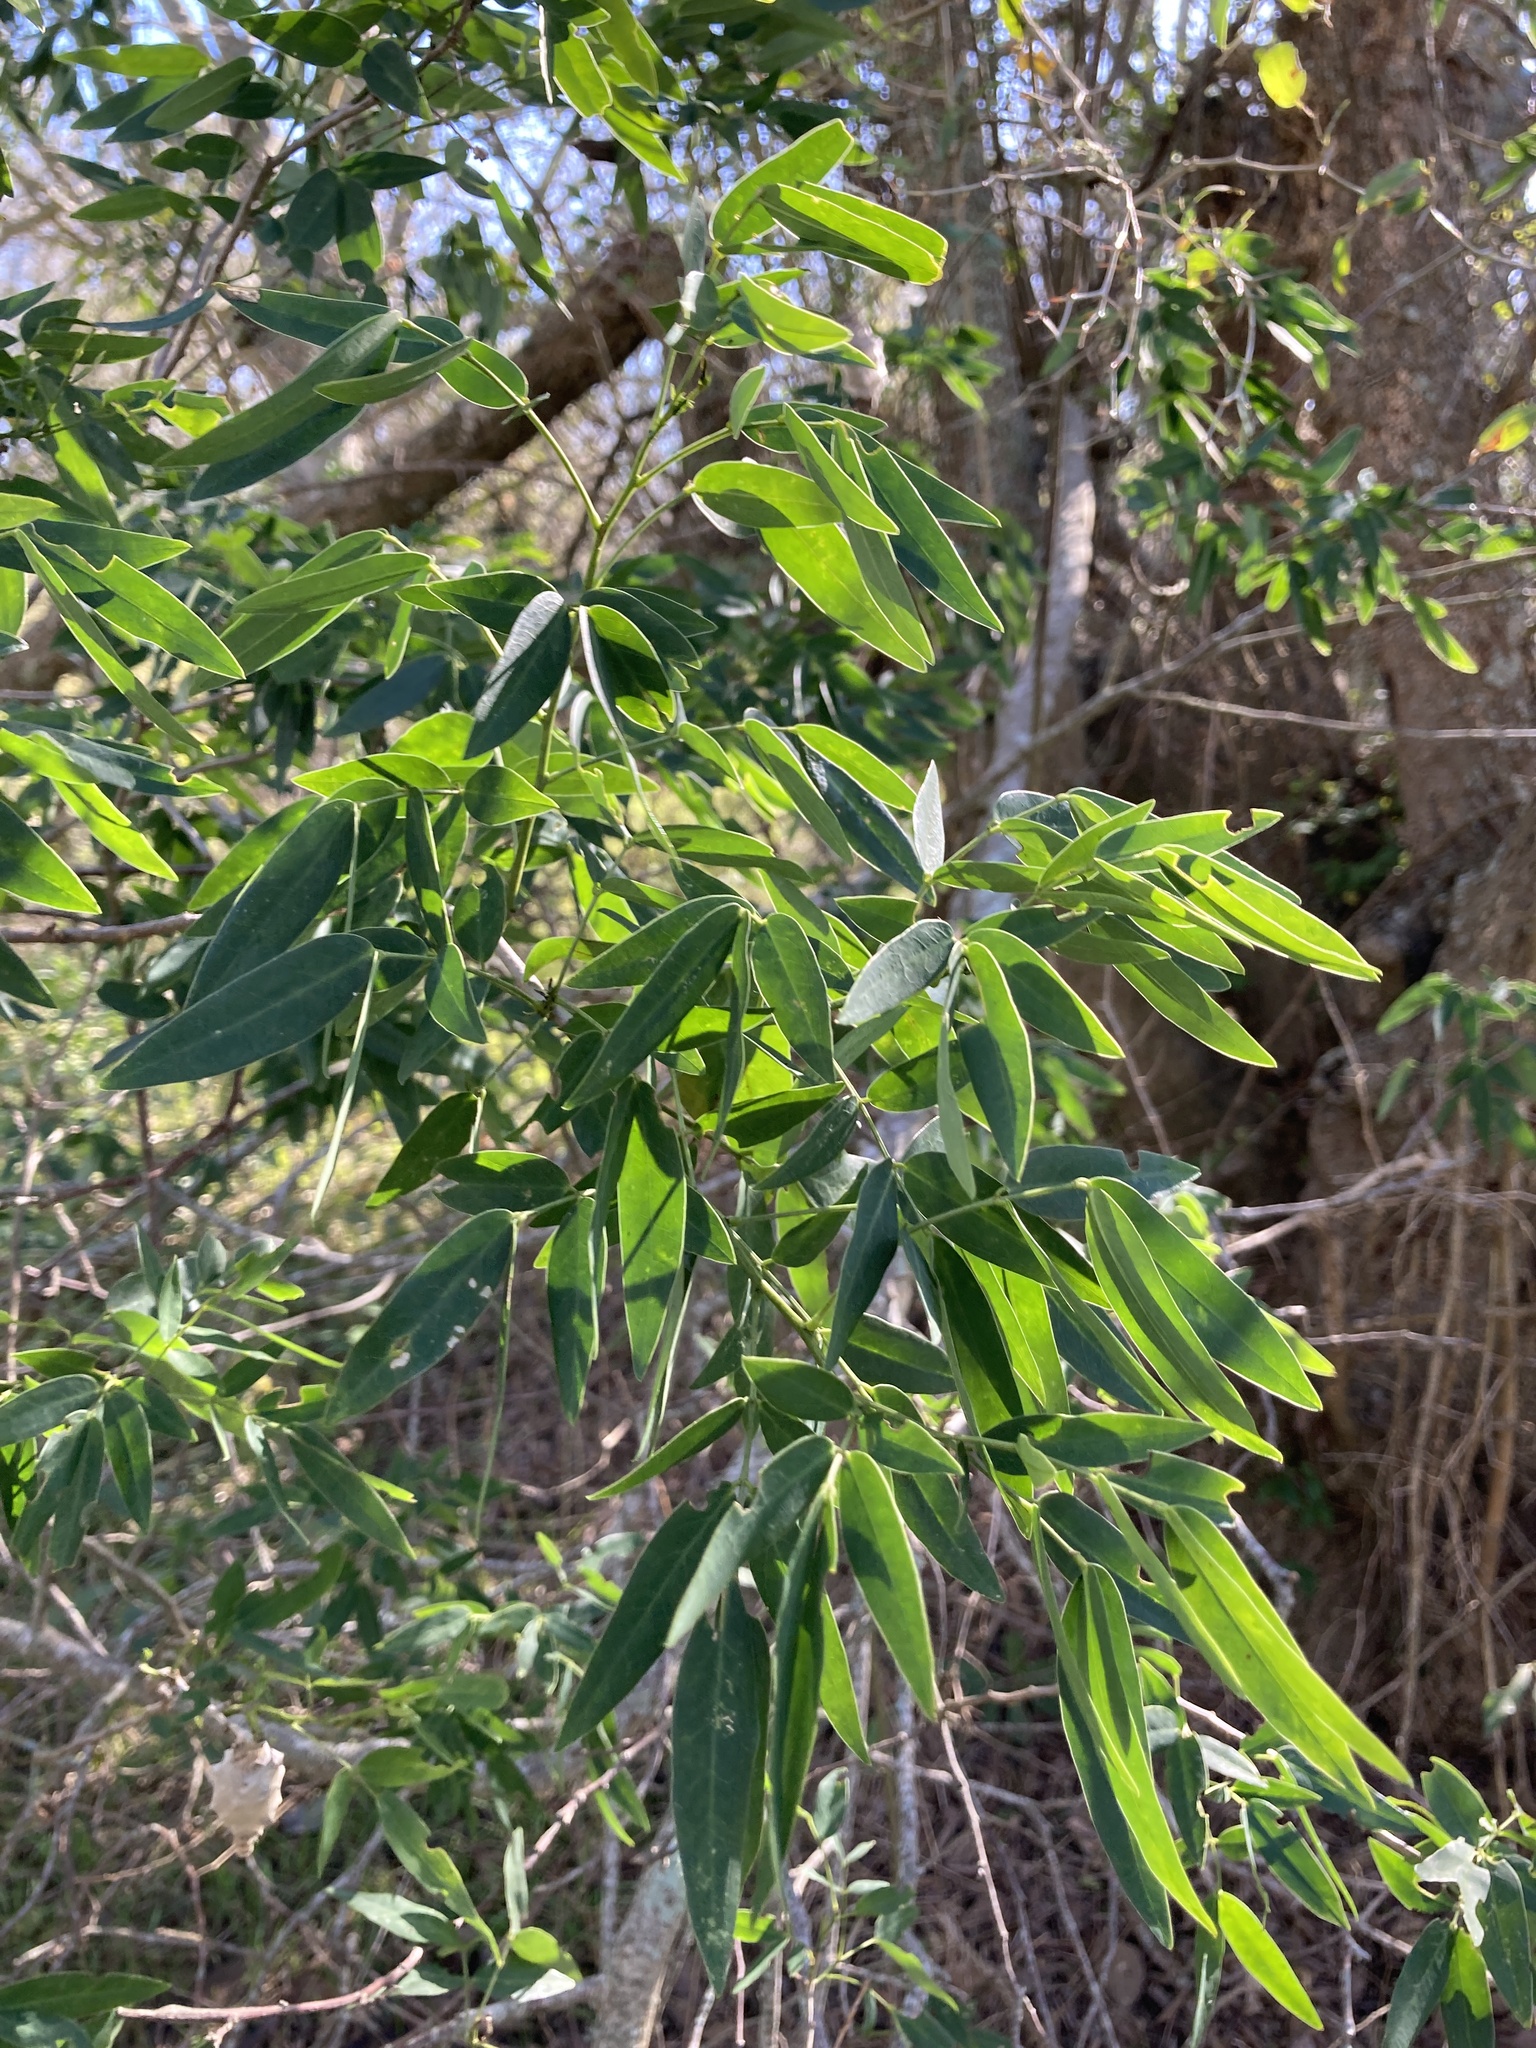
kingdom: Plantae
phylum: Tracheophyta
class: Magnoliopsida
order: Fabales
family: Fabaceae
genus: Senna
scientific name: Senna corymbosa
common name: Argentine senna
